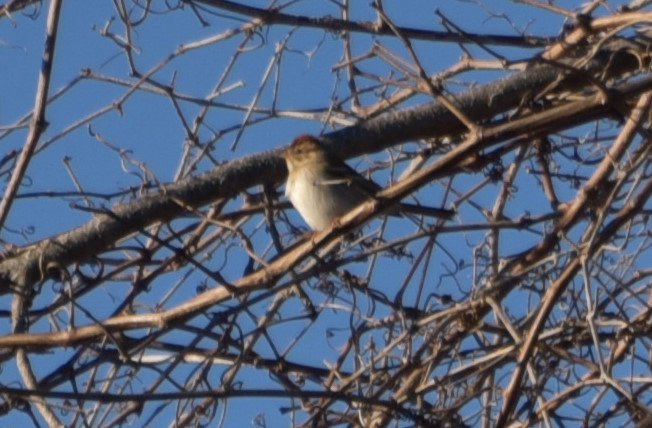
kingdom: Animalia
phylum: Chordata
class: Aves
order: Passeriformes
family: Passerellidae
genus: Spizella
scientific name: Spizella pusilla
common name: Field sparrow
